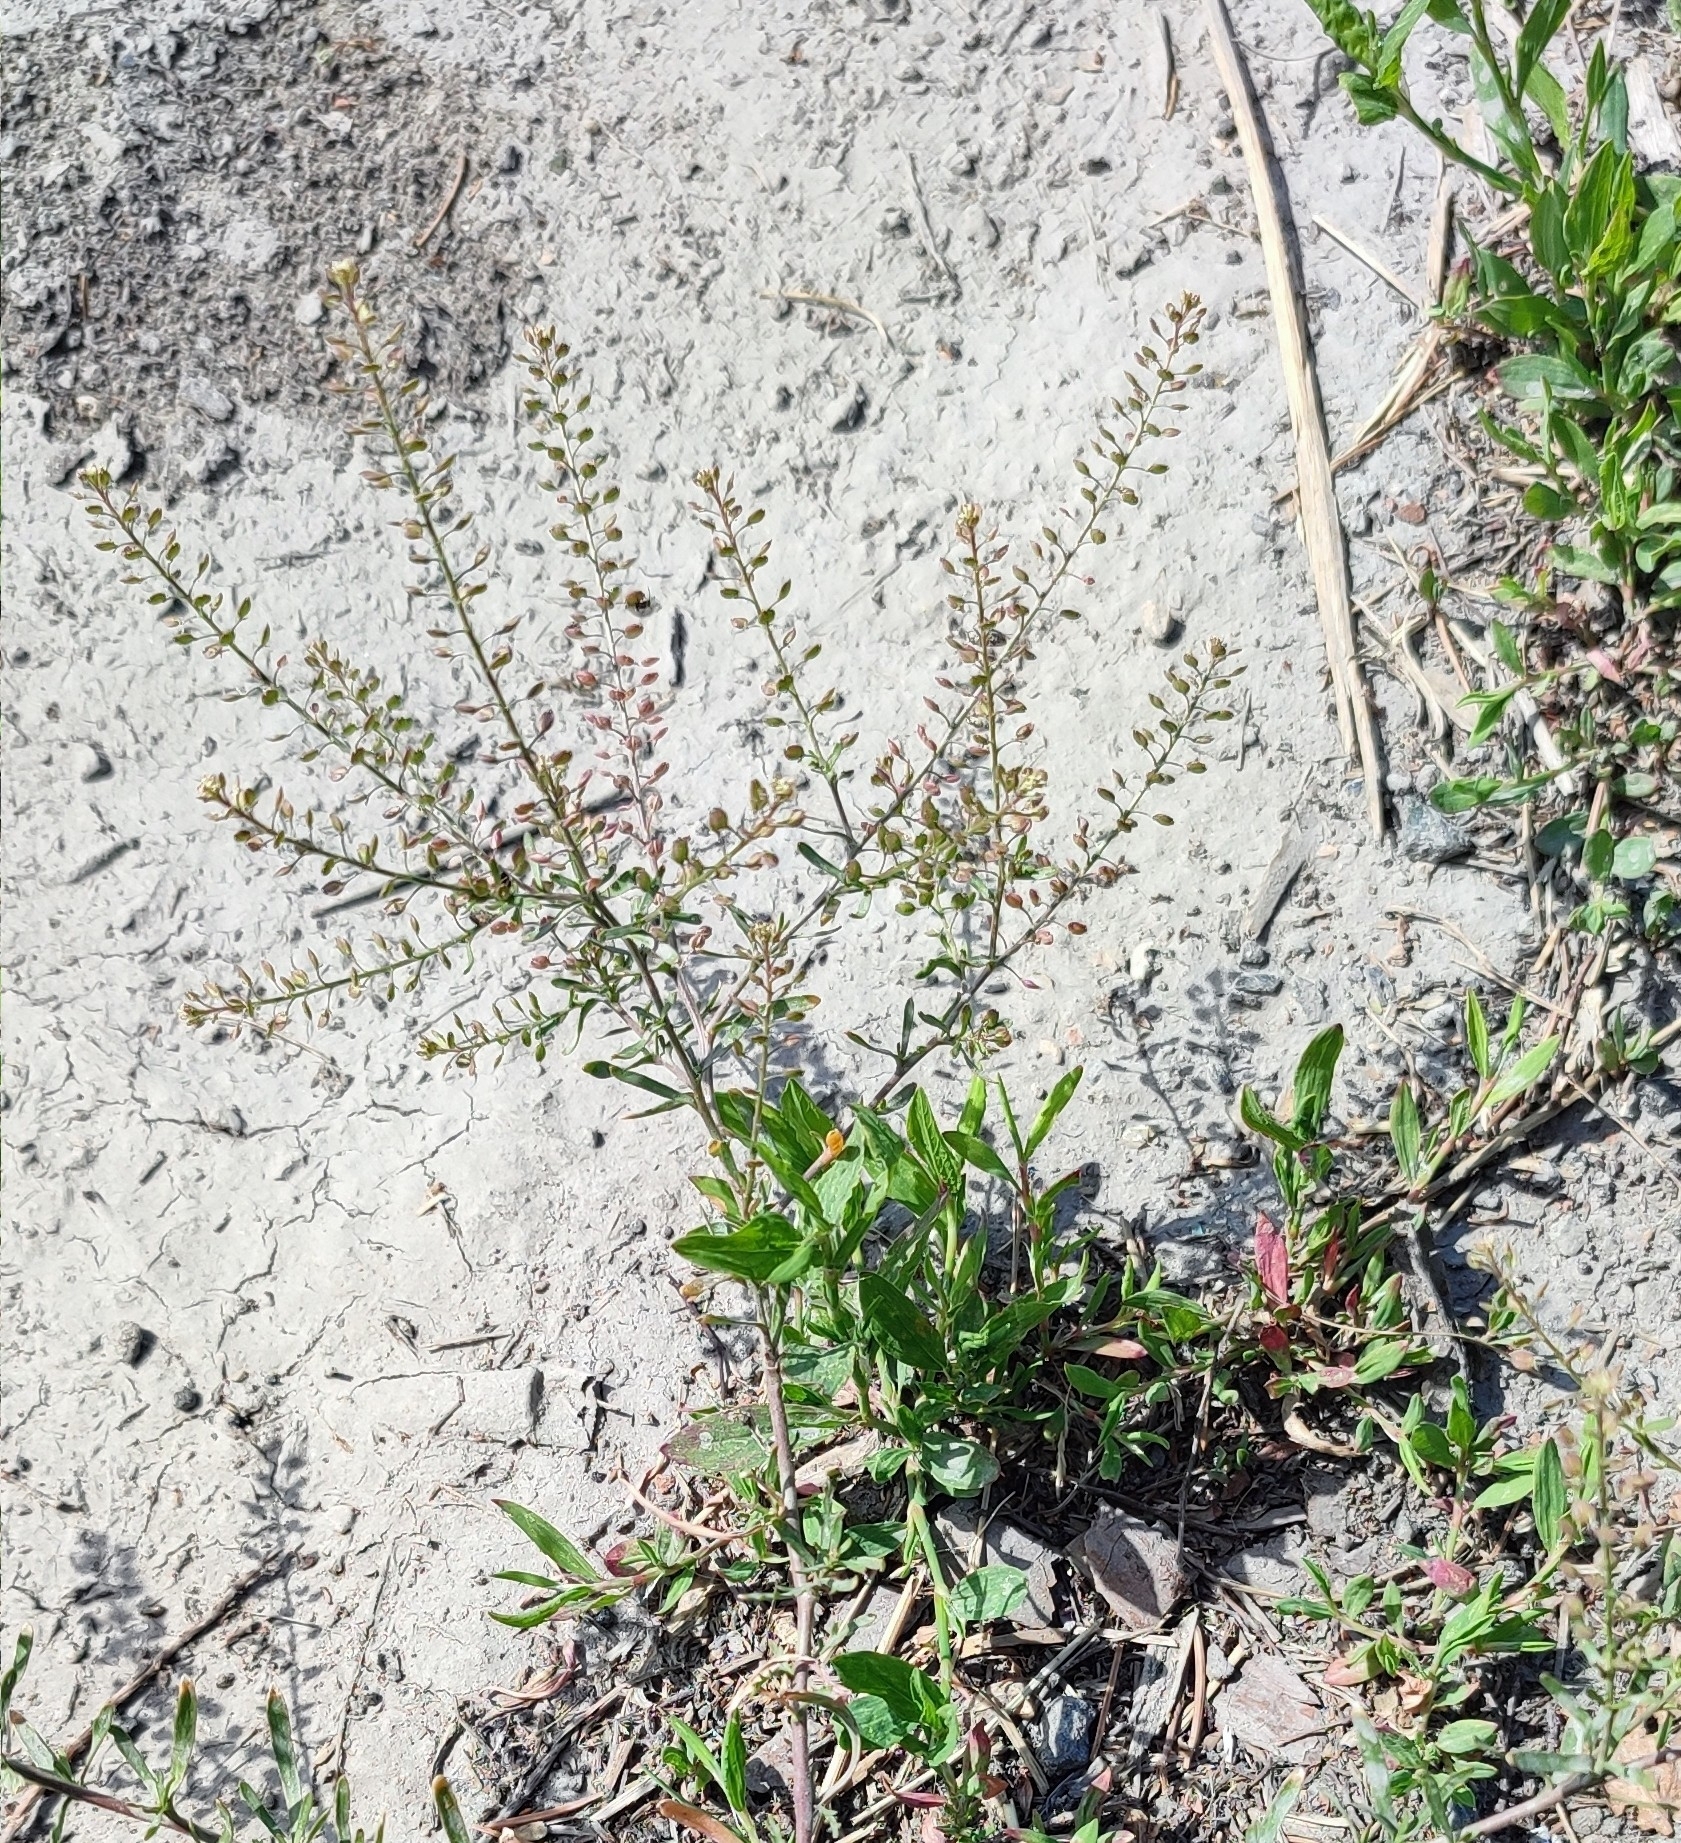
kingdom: Plantae
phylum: Tracheophyta
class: Magnoliopsida
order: Brassicales
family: Brassicaceae
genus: Lepidium
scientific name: Lepidium ruderale
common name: Narrow-leaved pepperwort
